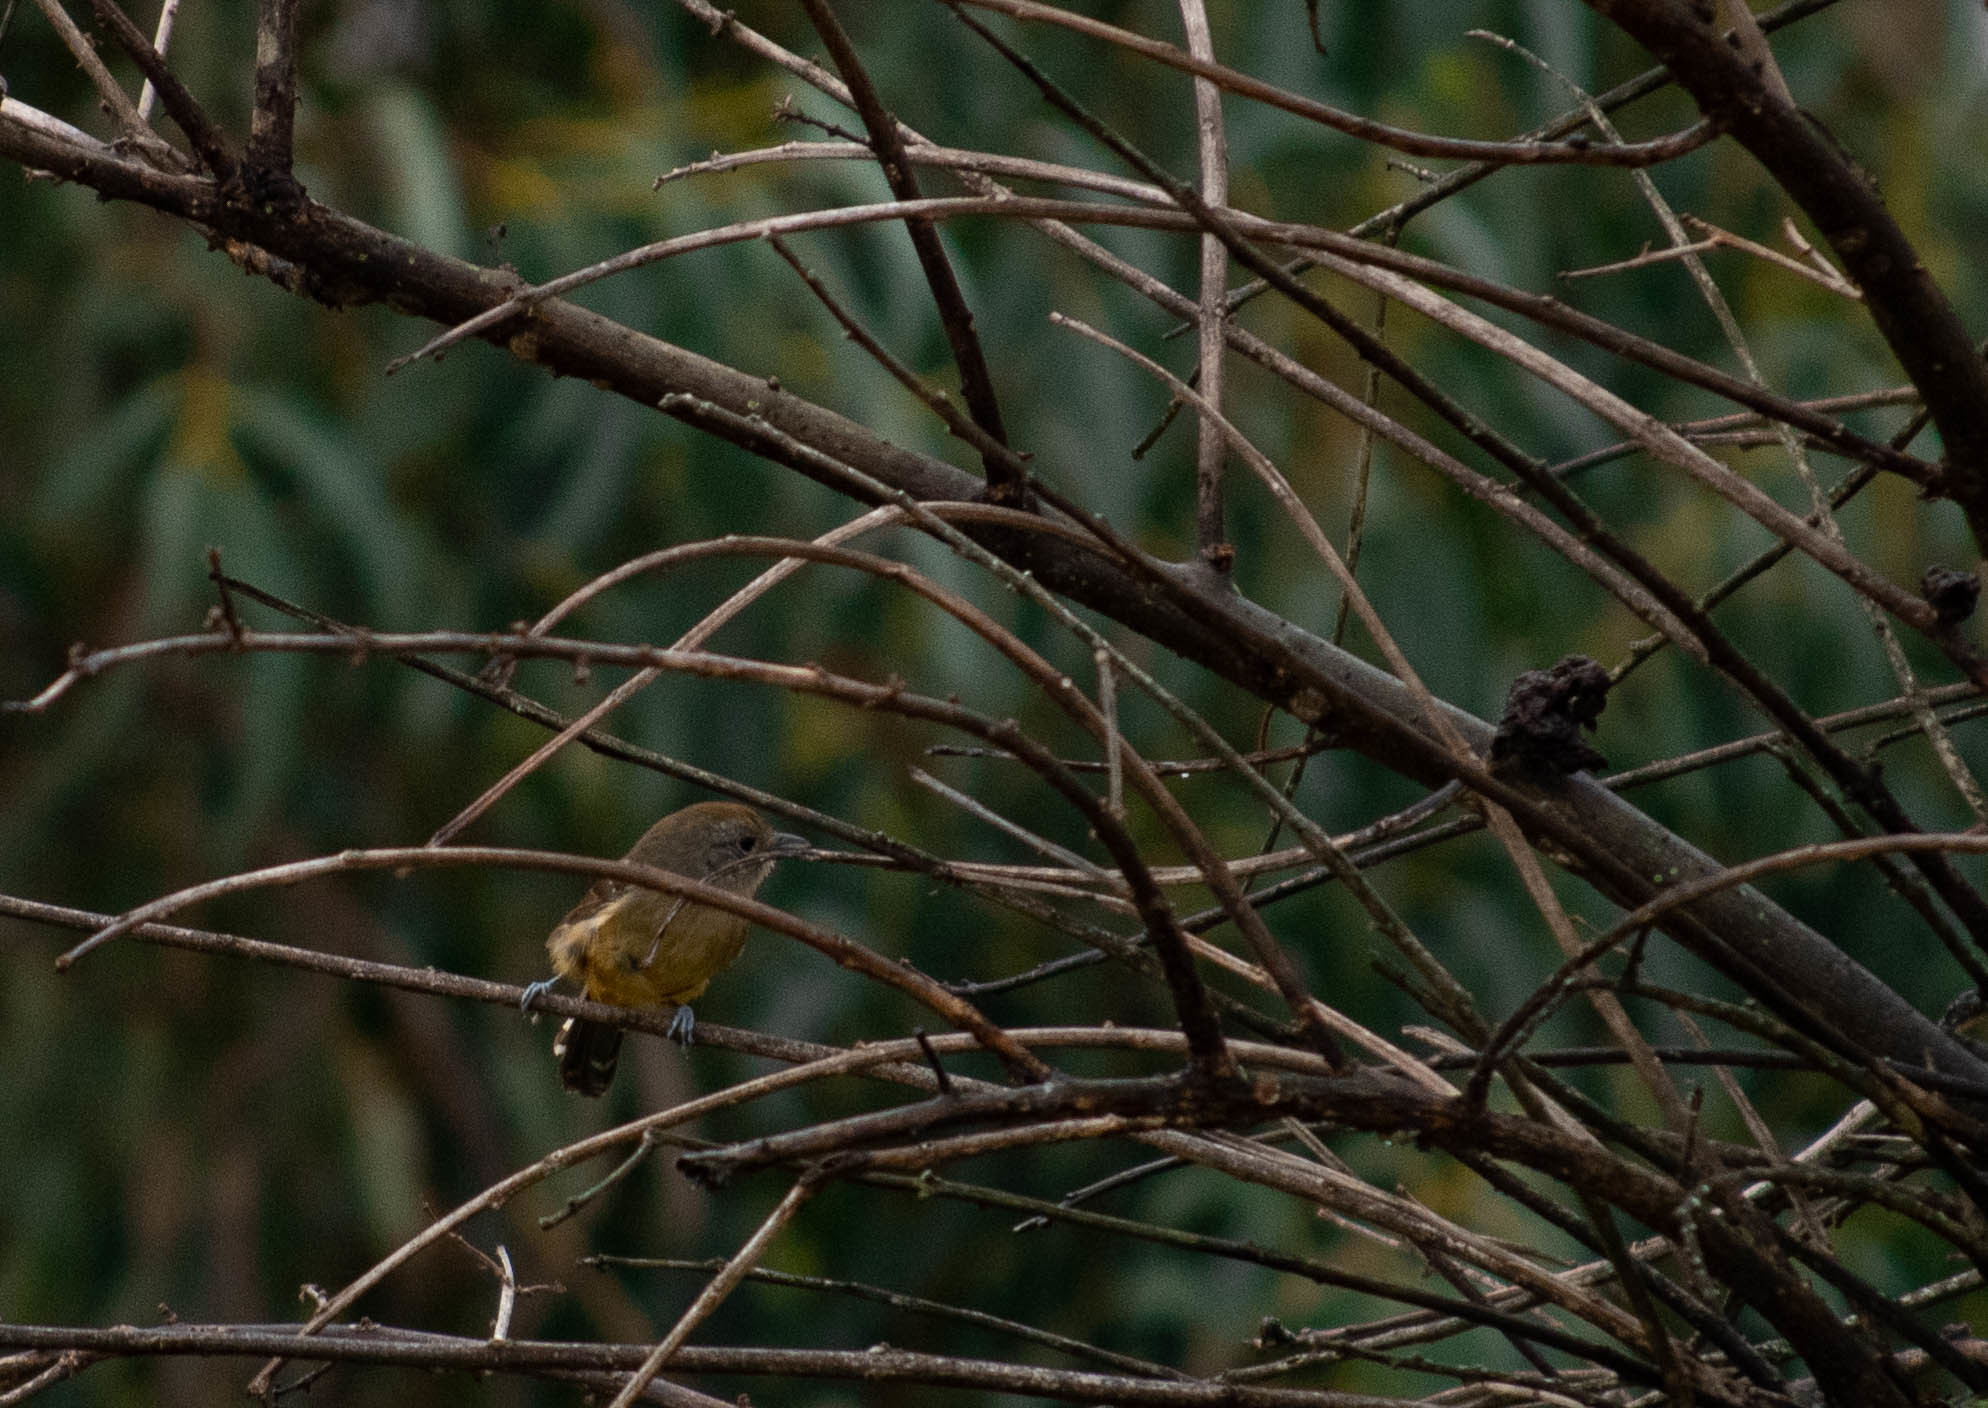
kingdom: Animalia
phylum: Chordata
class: Aves
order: Passeriformes
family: Thamnophilidae
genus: Thamnophilus
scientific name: Thamnophilus caerulescens
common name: Variable antshrike
